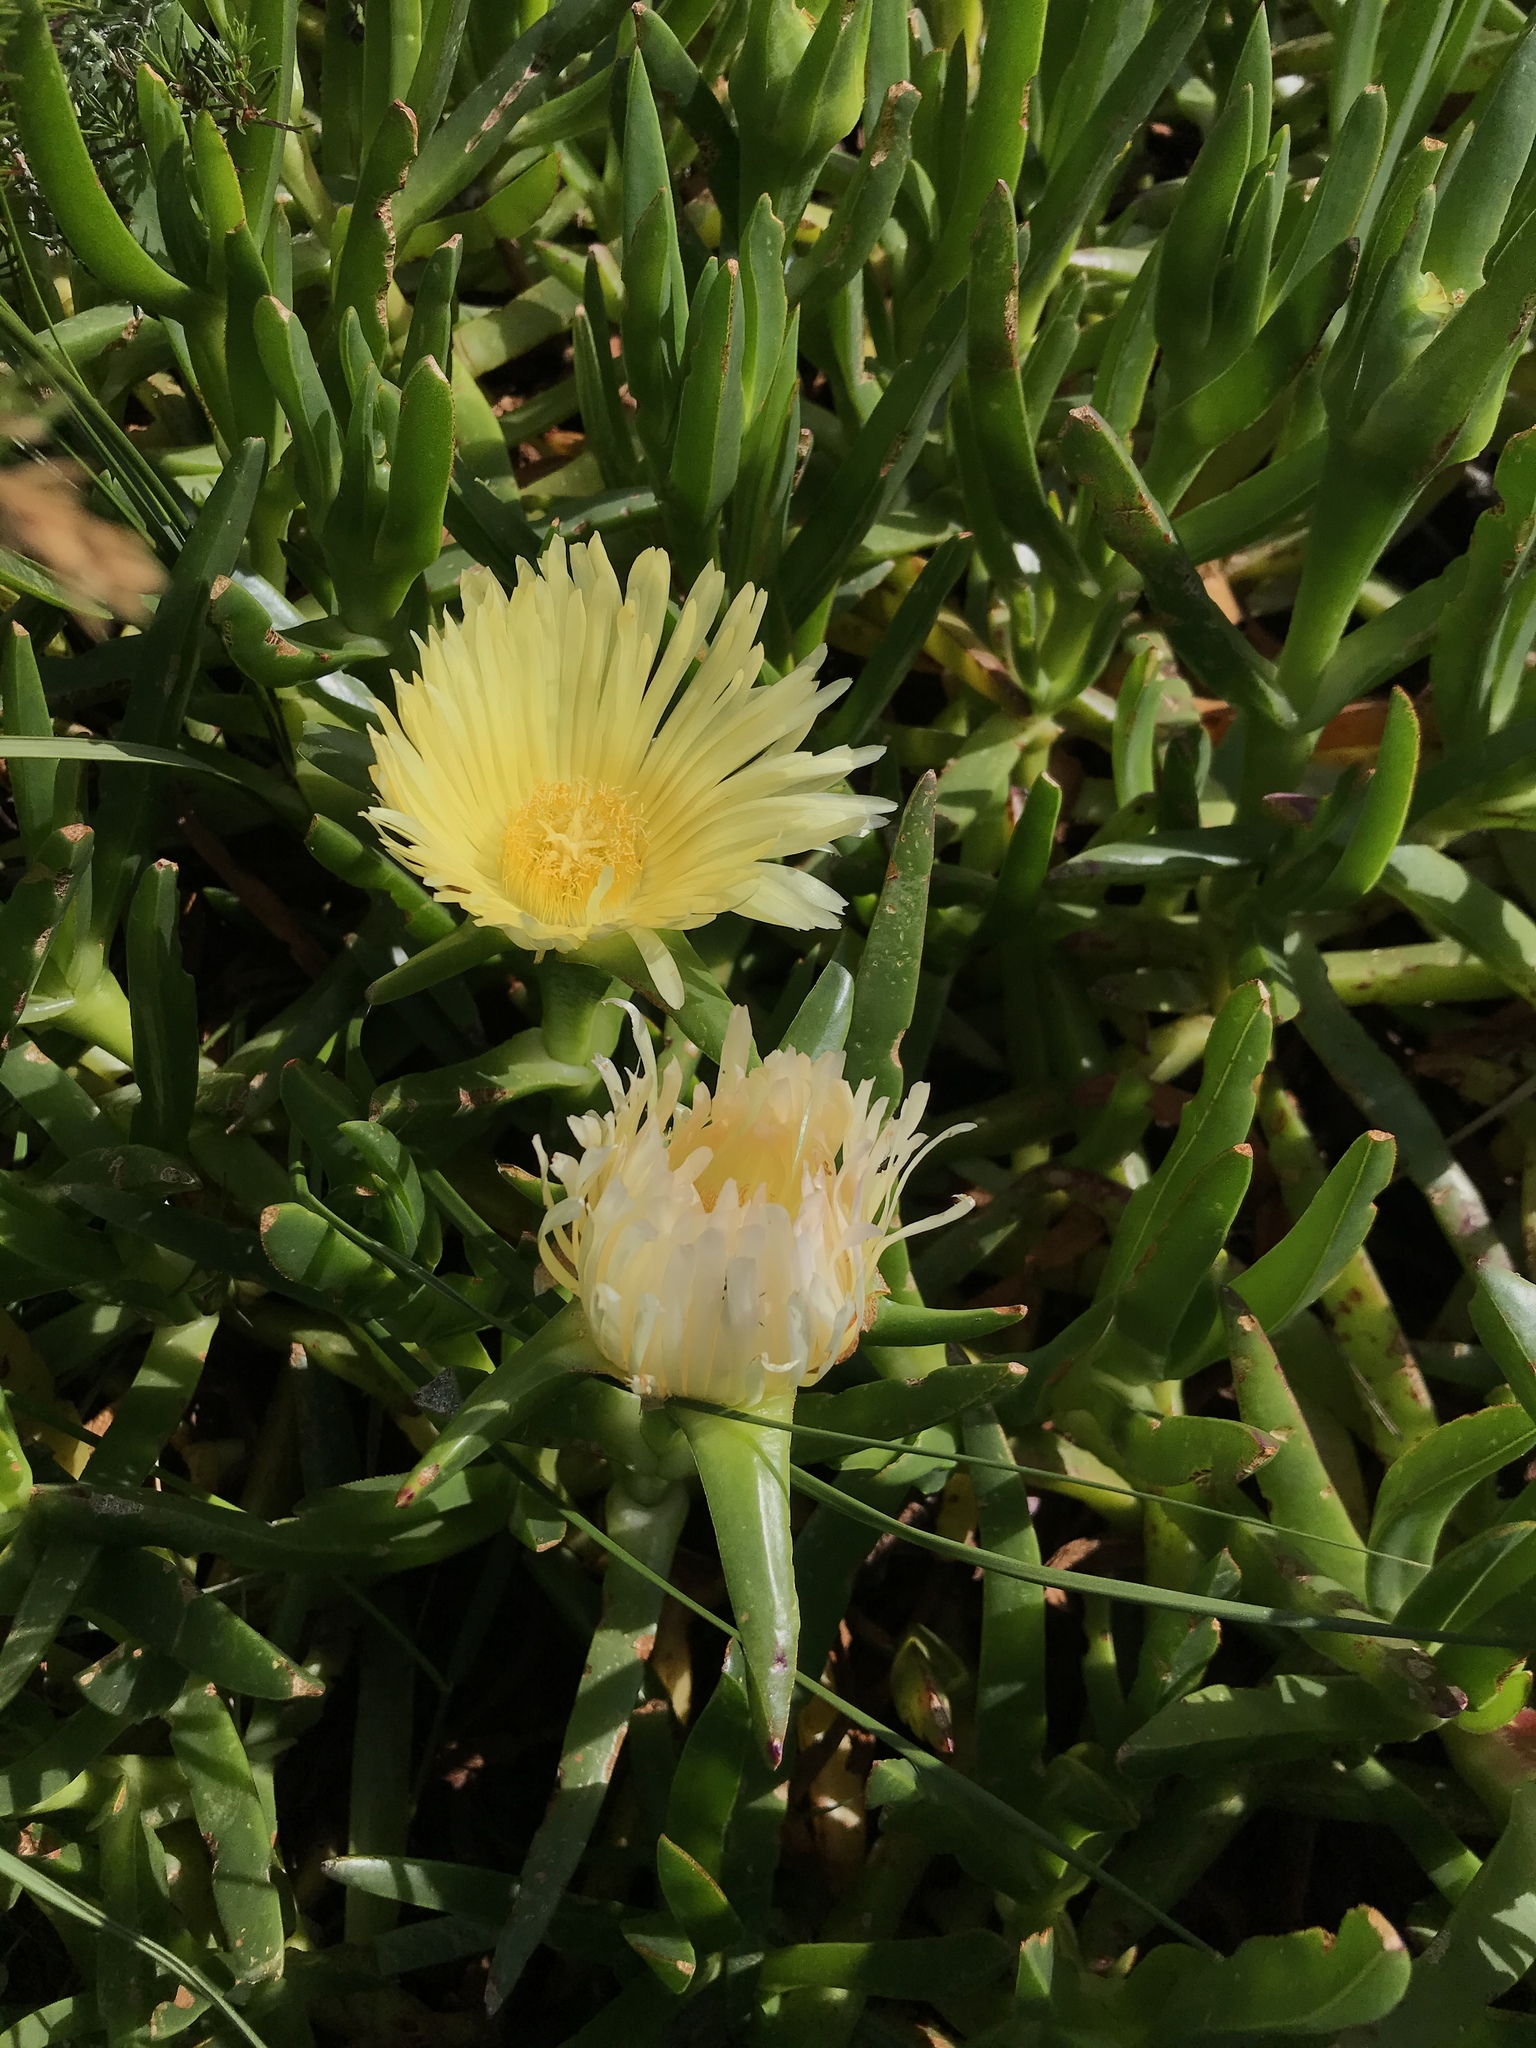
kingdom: Plantae
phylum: Tracheophyta
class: Magnoliopsida
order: Caryophyllales
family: Aizoaceae
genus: Carpobrotus
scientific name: Carpobrotus edulis
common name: Hottentot-fig
